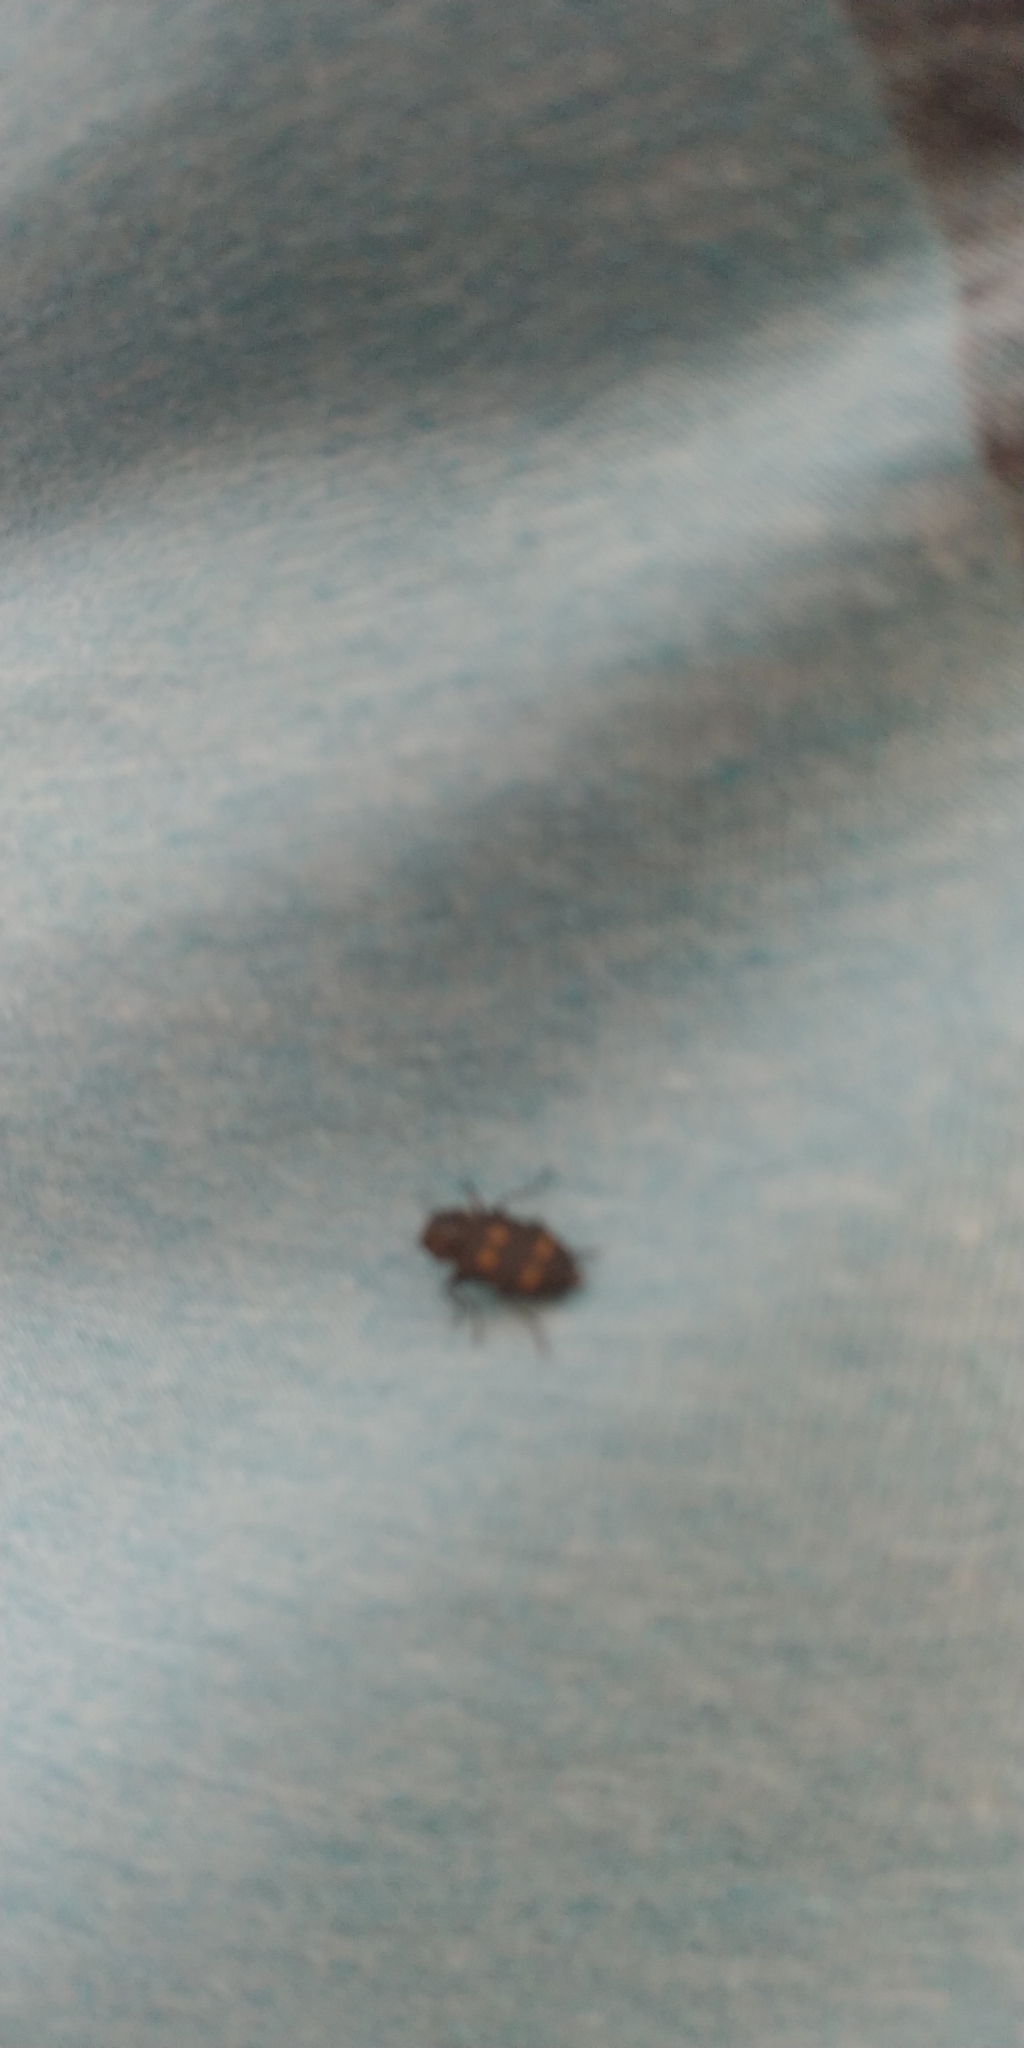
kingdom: Animalia
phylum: Arthropoda
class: Insecta
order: Coleoptera
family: Buprestidae
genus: Melanophila
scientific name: Melanophila notata
